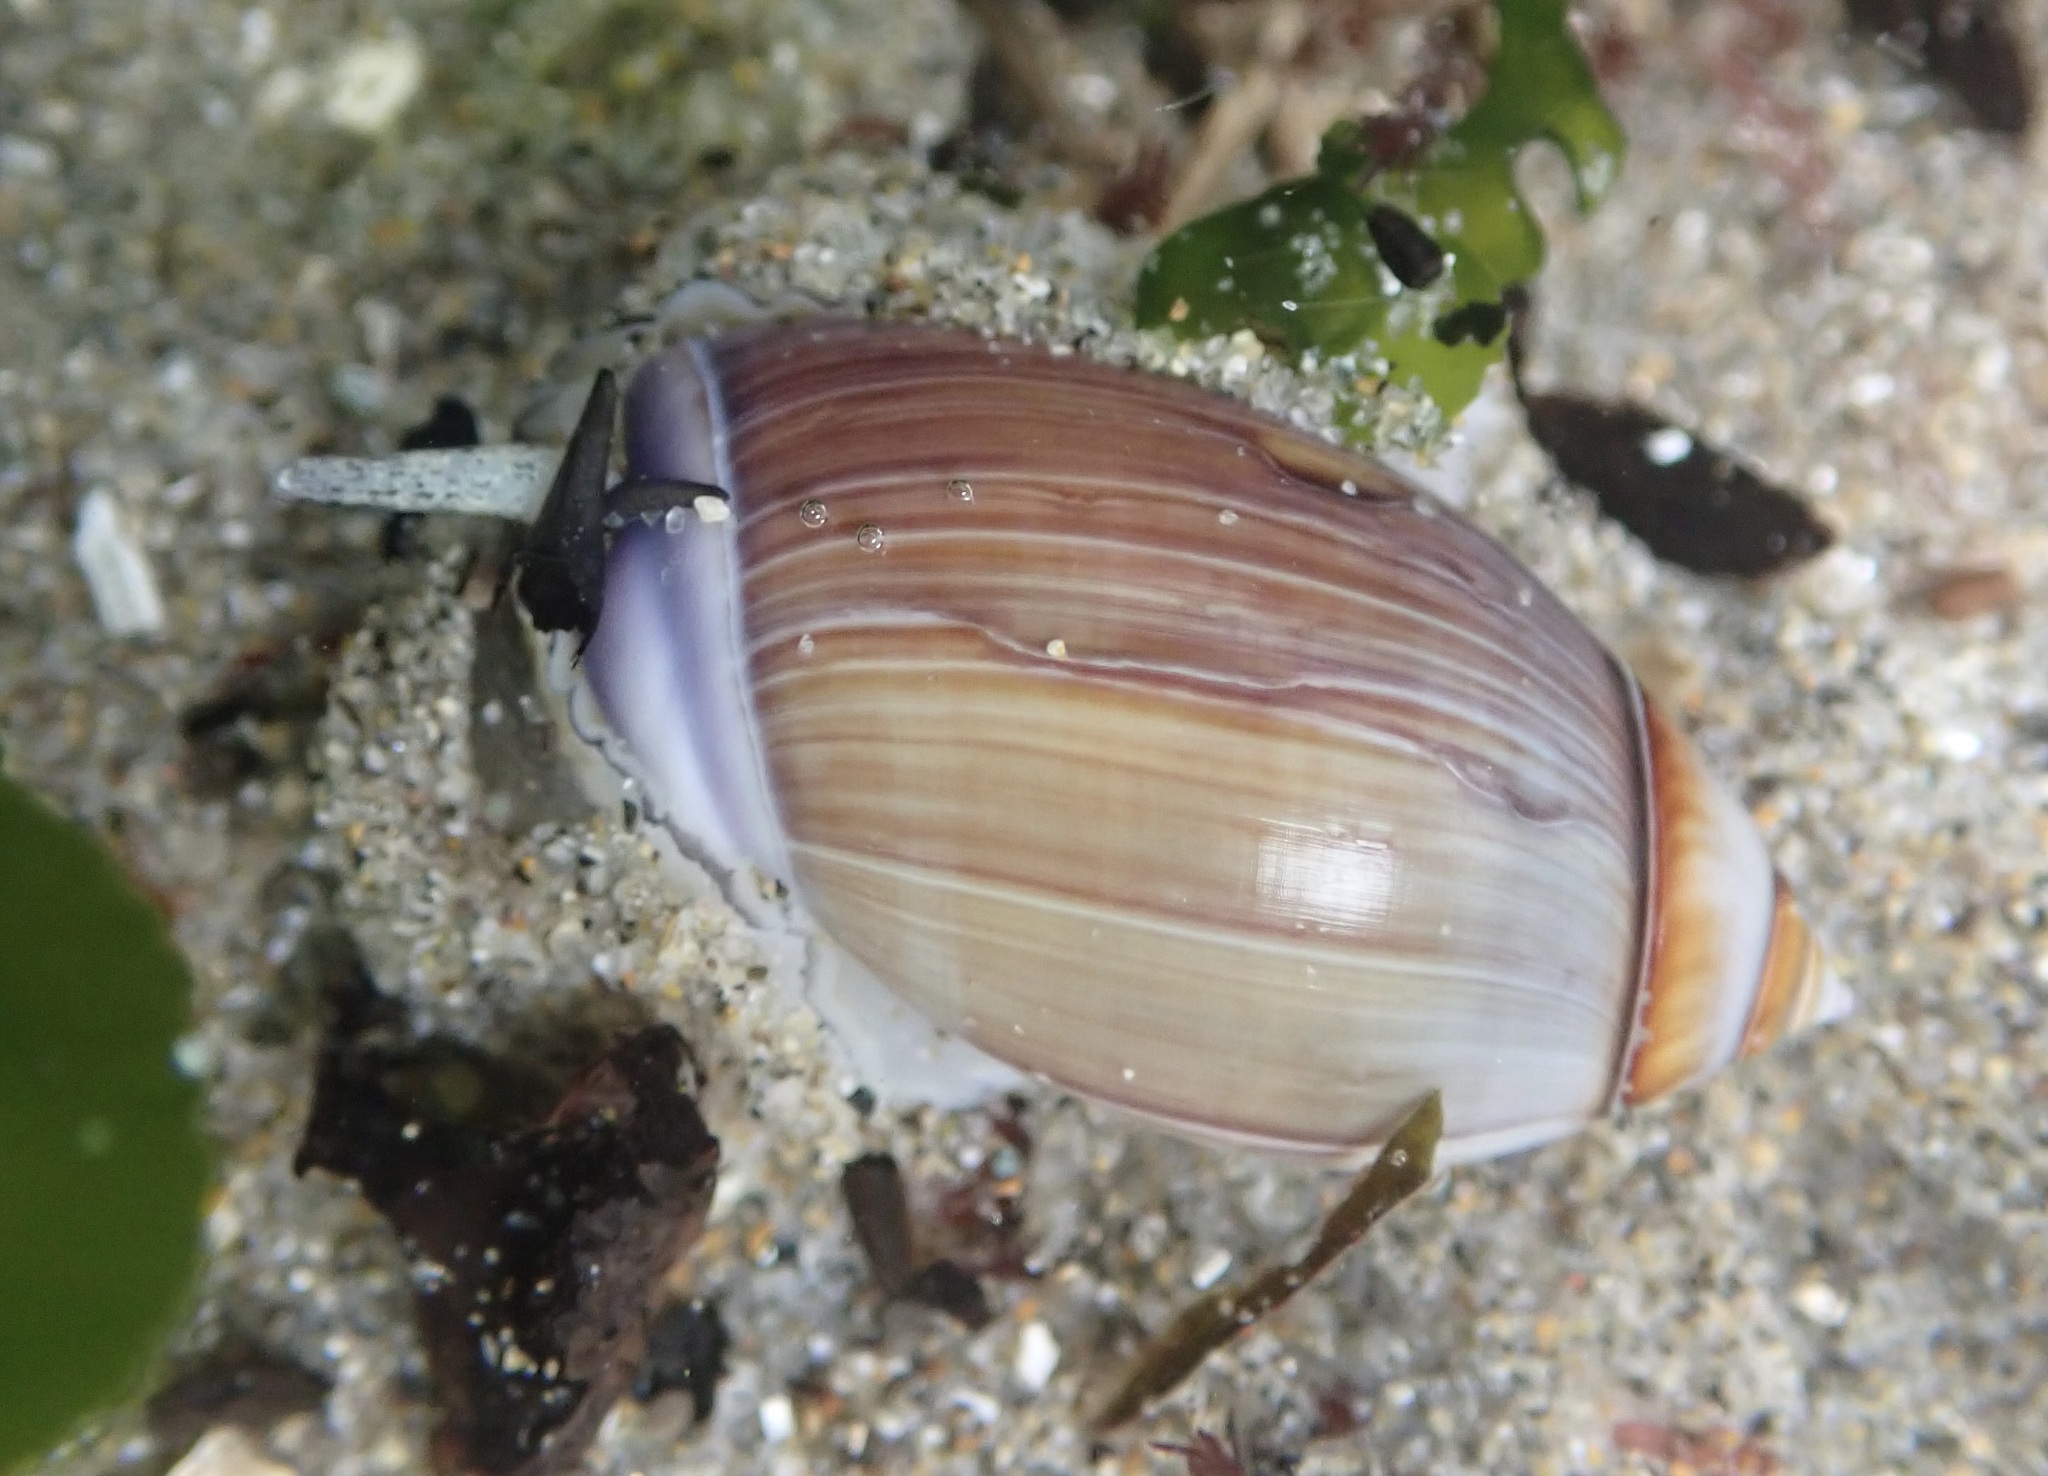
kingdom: Animalia
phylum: Mollusca
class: Gastropoda
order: Neogastropoda
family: Olividae
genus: Callianax
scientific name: Callianax biplicata
